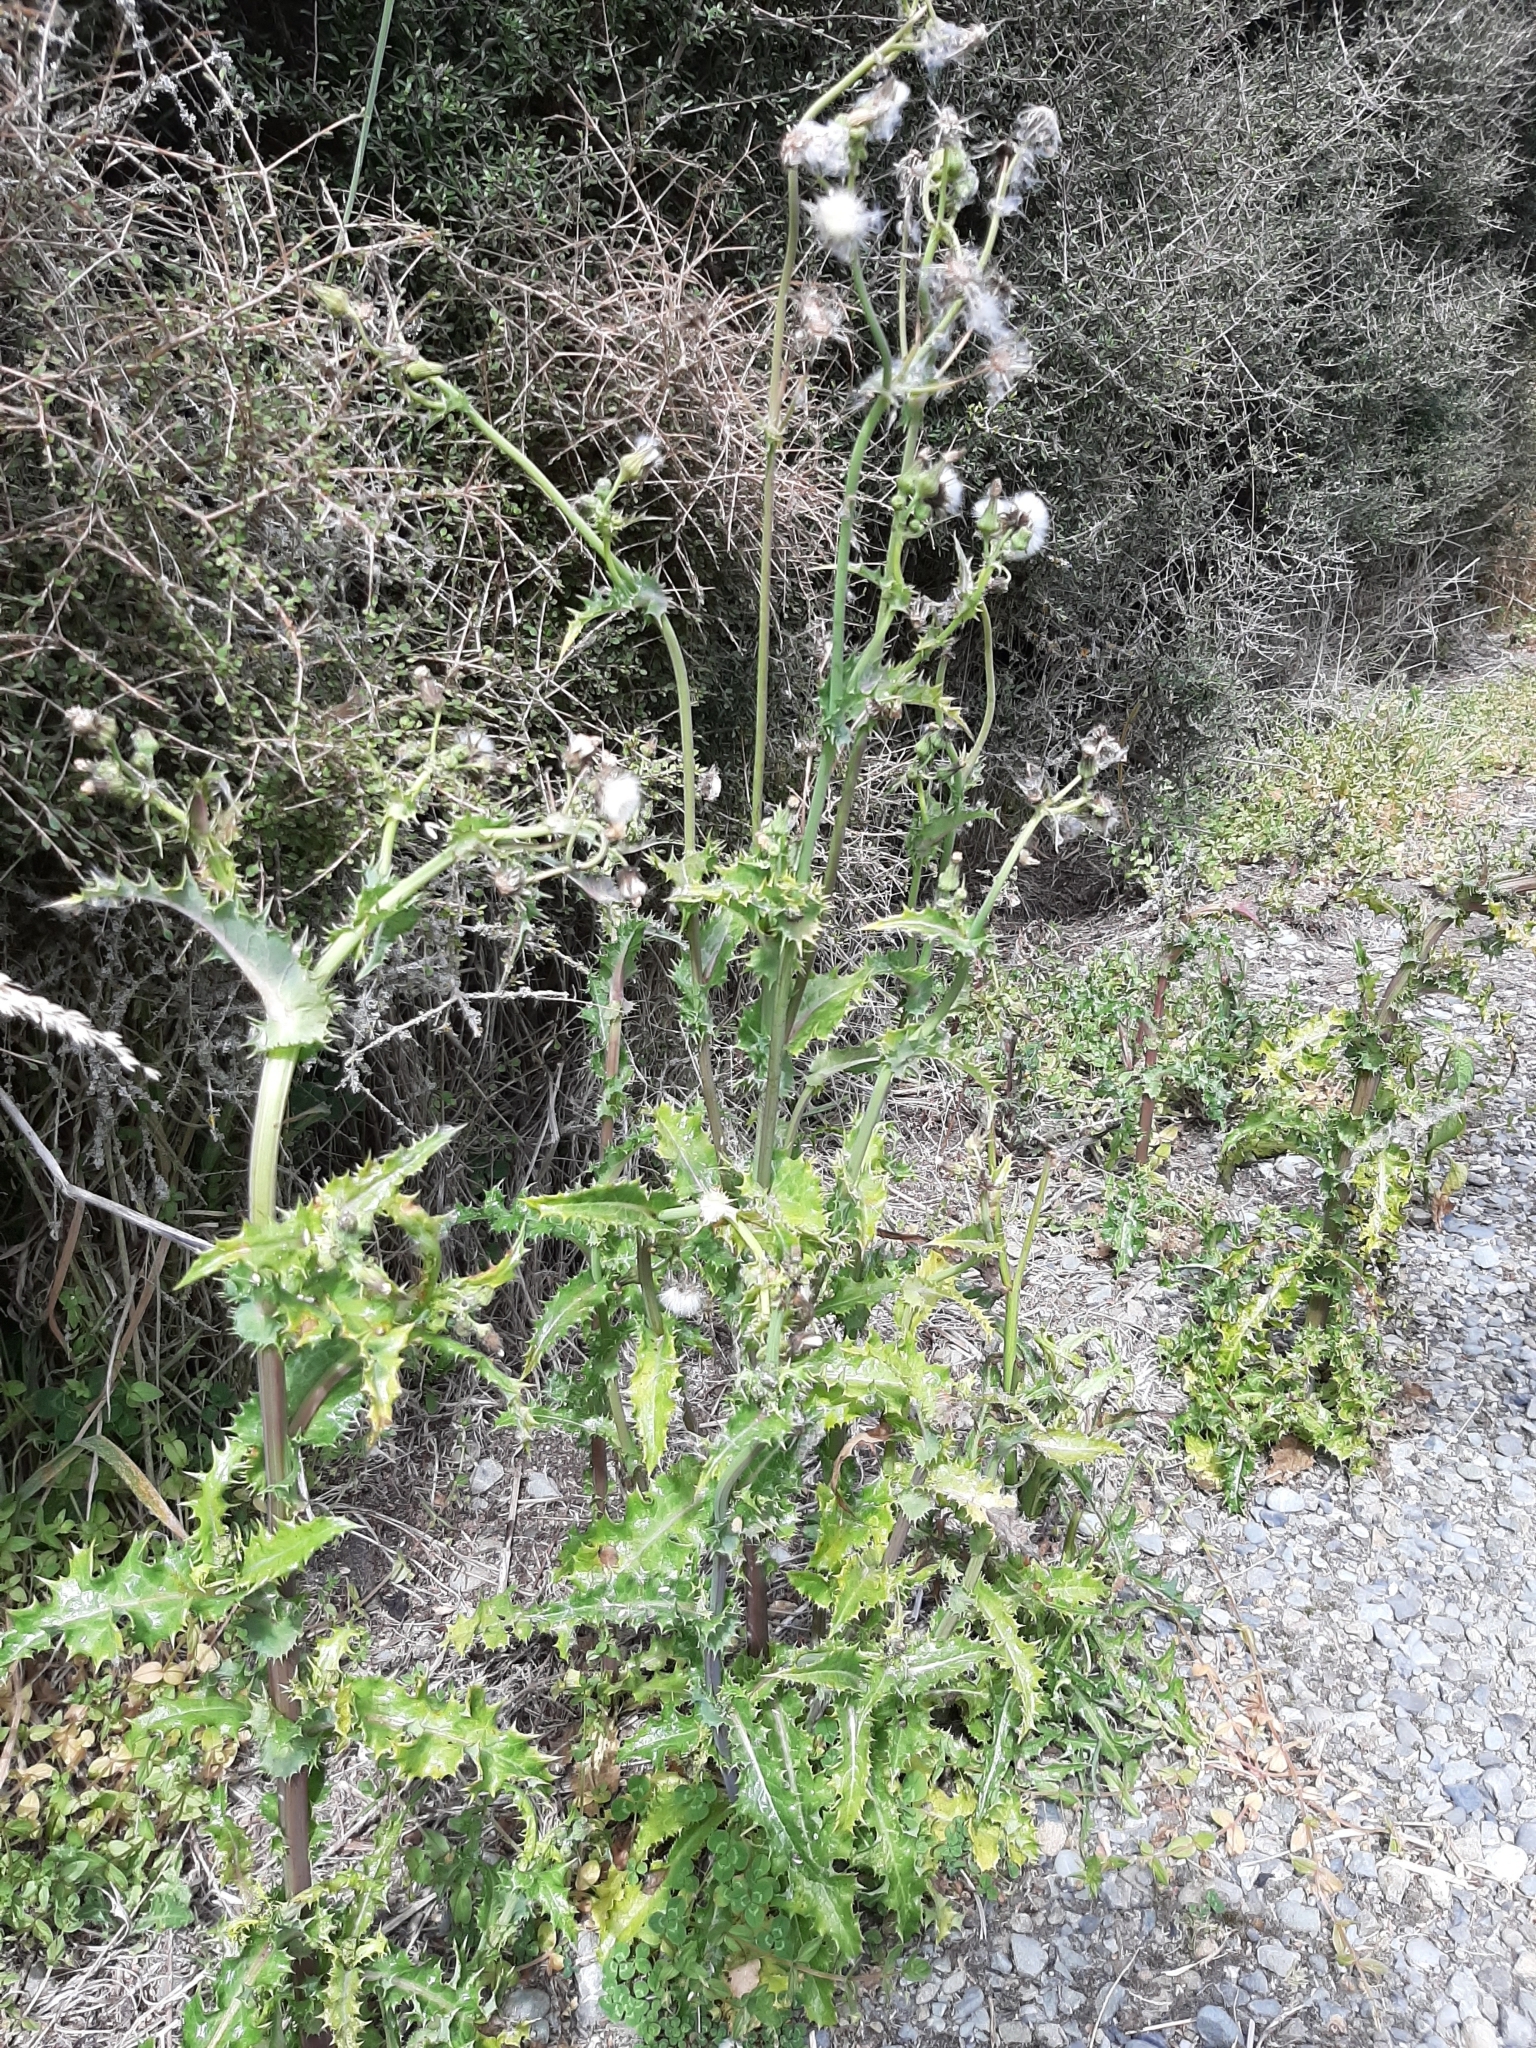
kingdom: Plantae
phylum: Tracheophyta
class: Magnoliopsida
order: Asterales
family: Asteraceae
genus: Sonchus
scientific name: Sonchus asper
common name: Prickly sow-thistle
